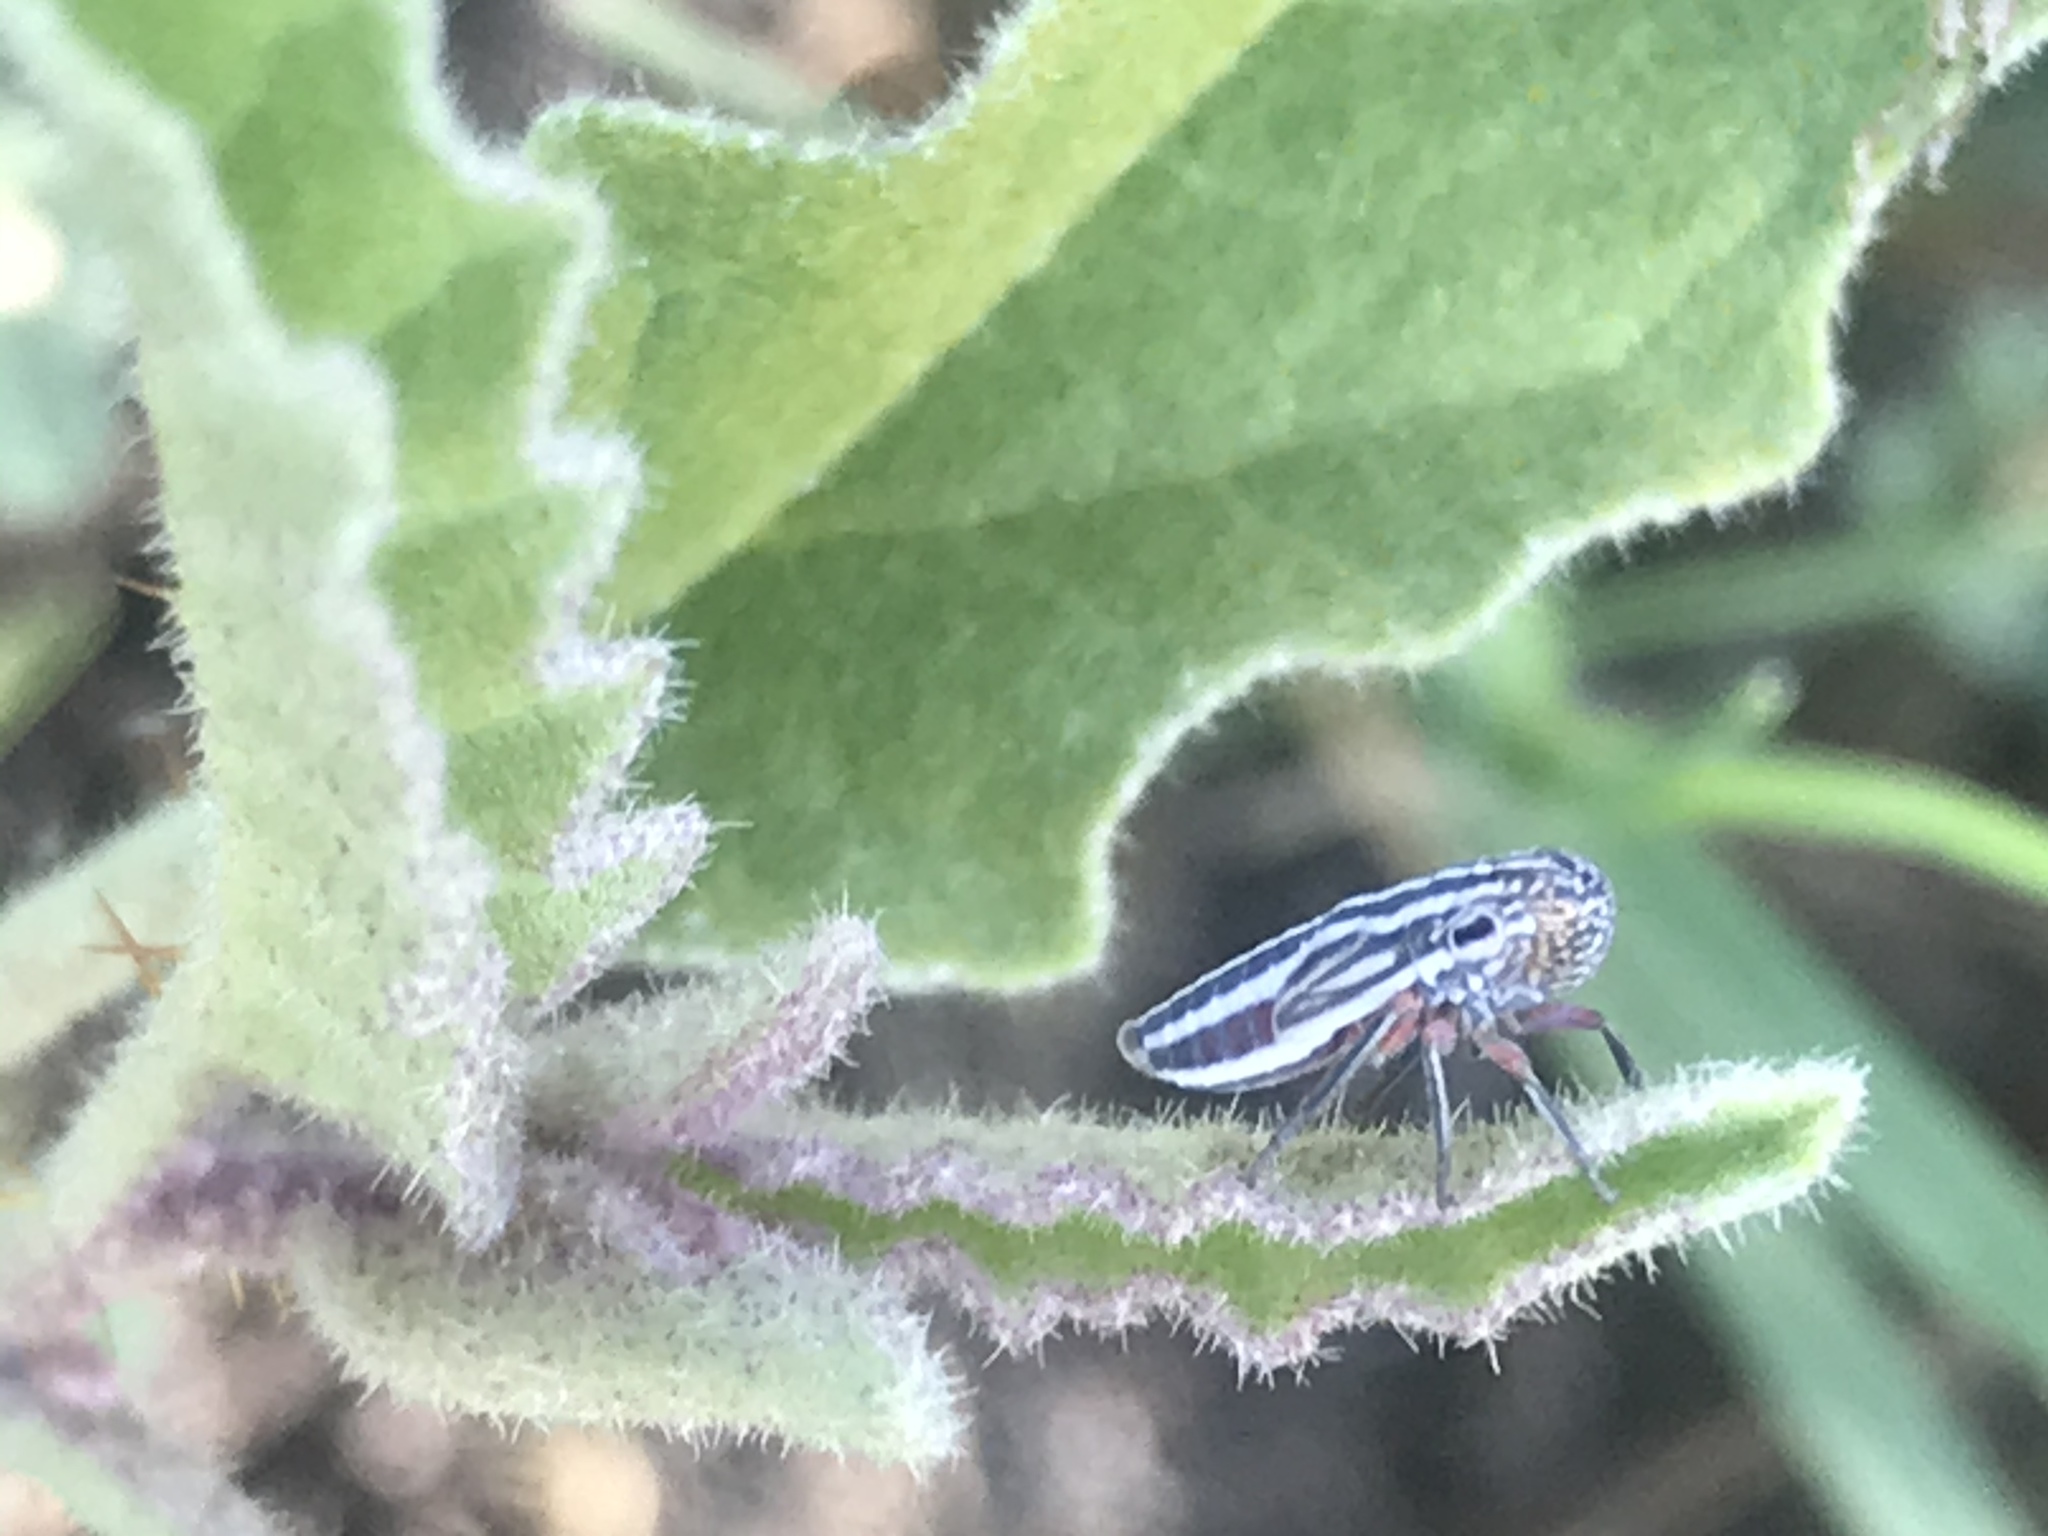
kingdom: Animalia
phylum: Arthropoda
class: Insecta
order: Hemiptera
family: Cicadellidae
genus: Cuerna
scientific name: Cuerna costalis
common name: Lateral-lined sharpshooter
